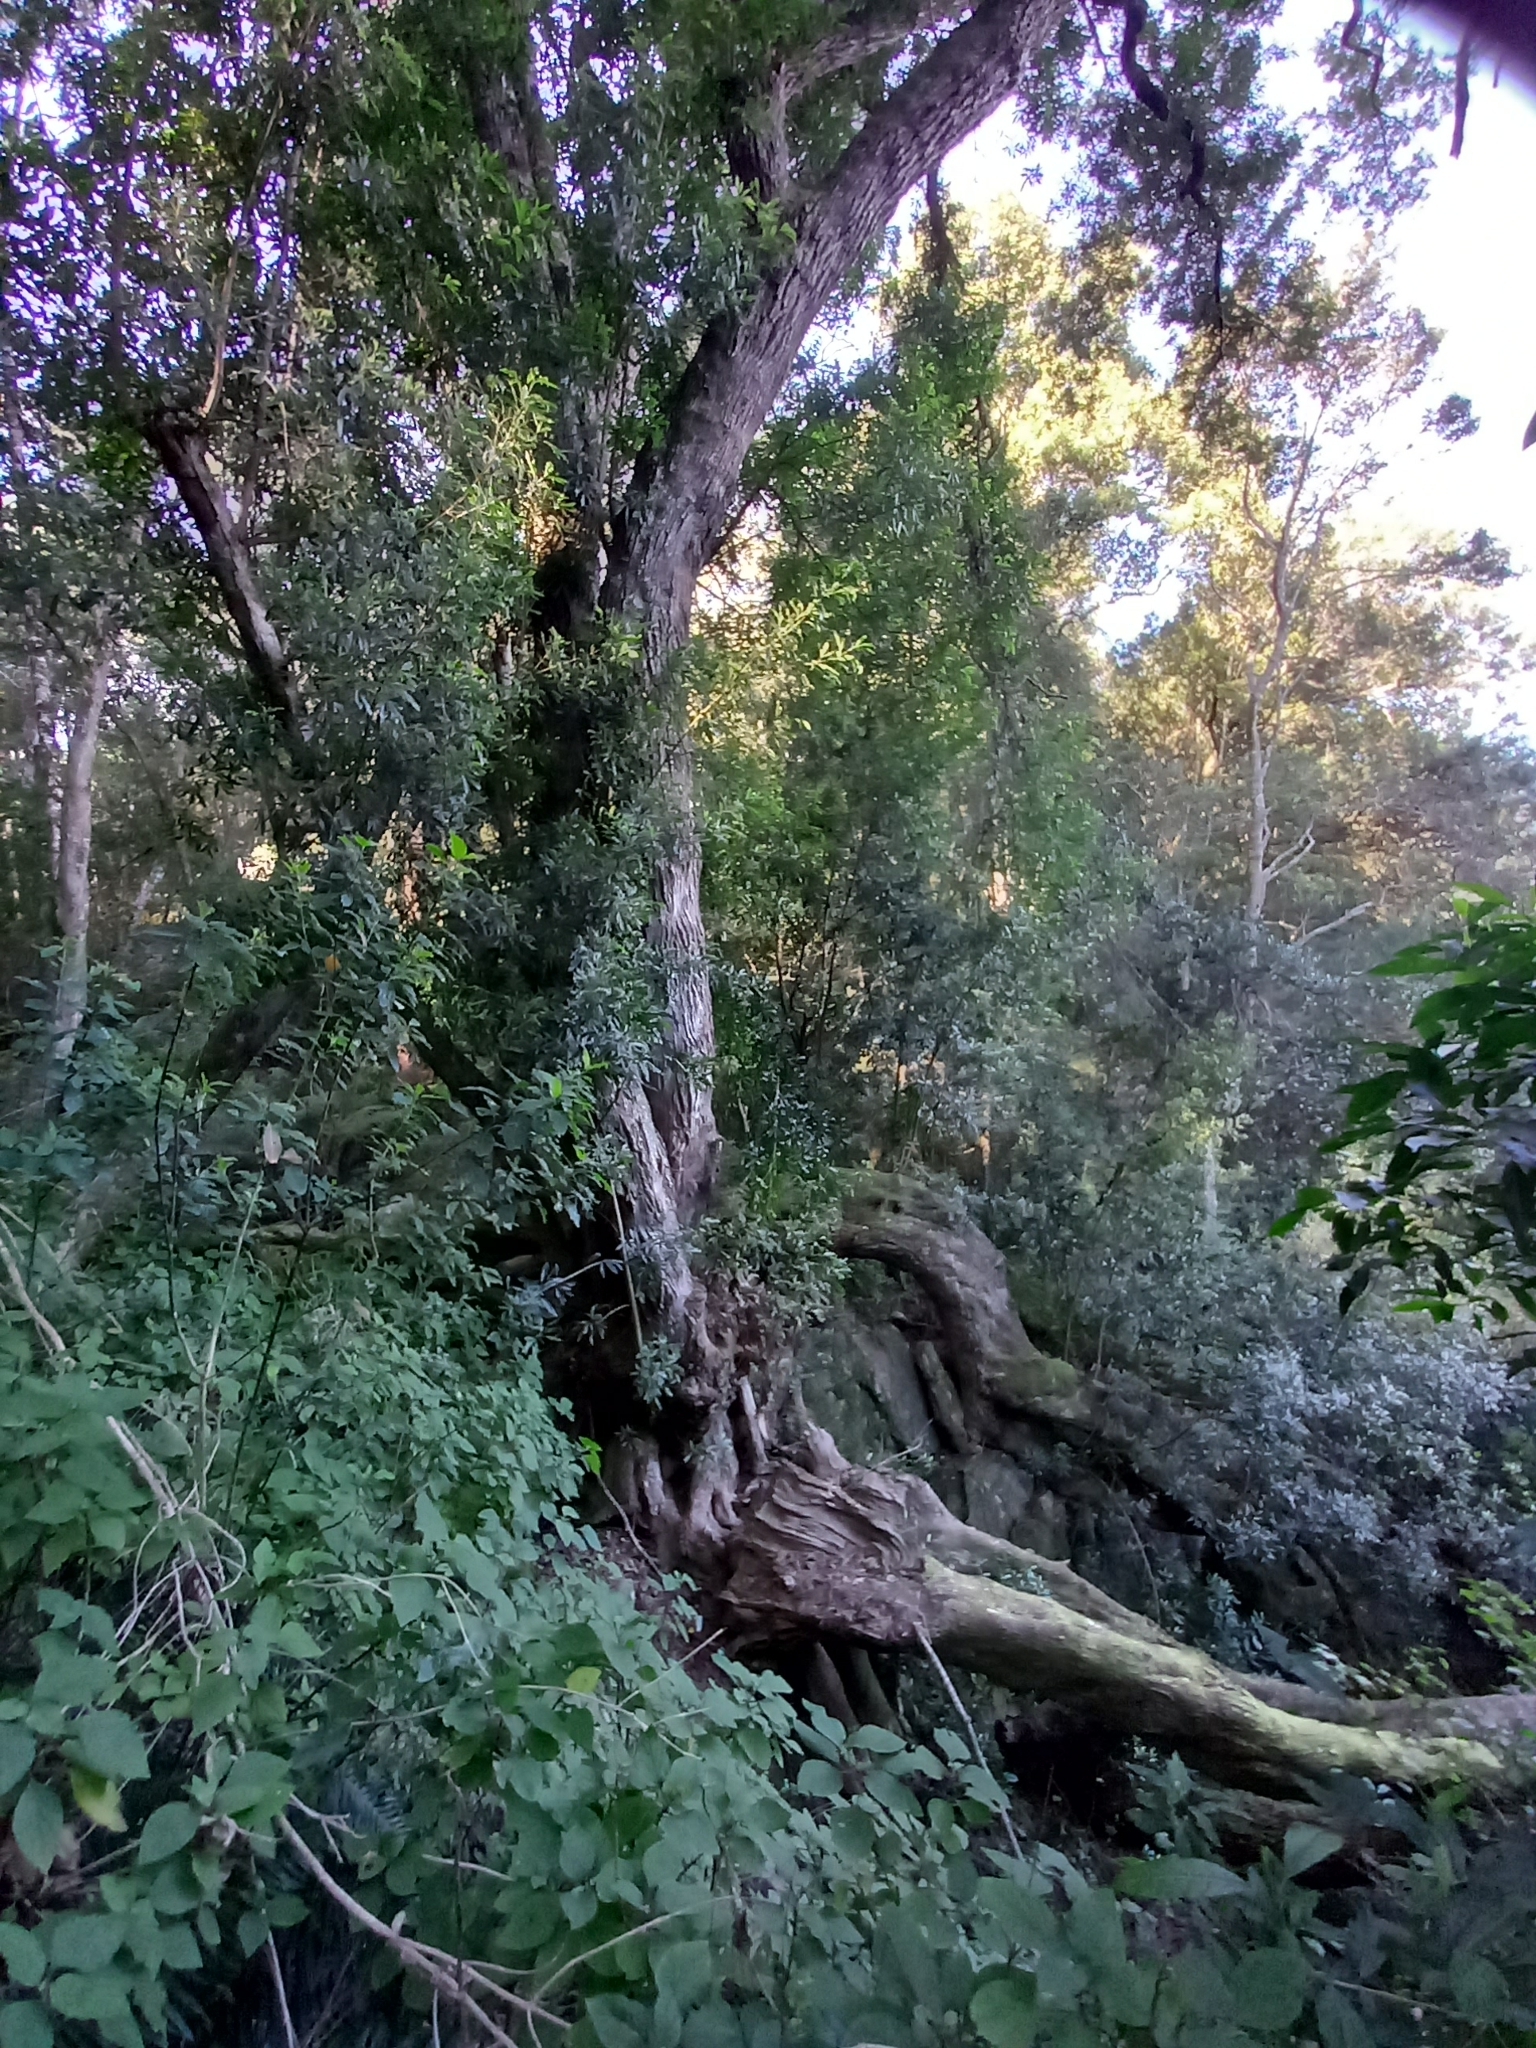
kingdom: Plantae
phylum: Tracheophyta
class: Magnoliopsida
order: Oxalidales
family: Cunoniaceae
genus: Platylophus
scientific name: Platylophus trifoliatus
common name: White alder
